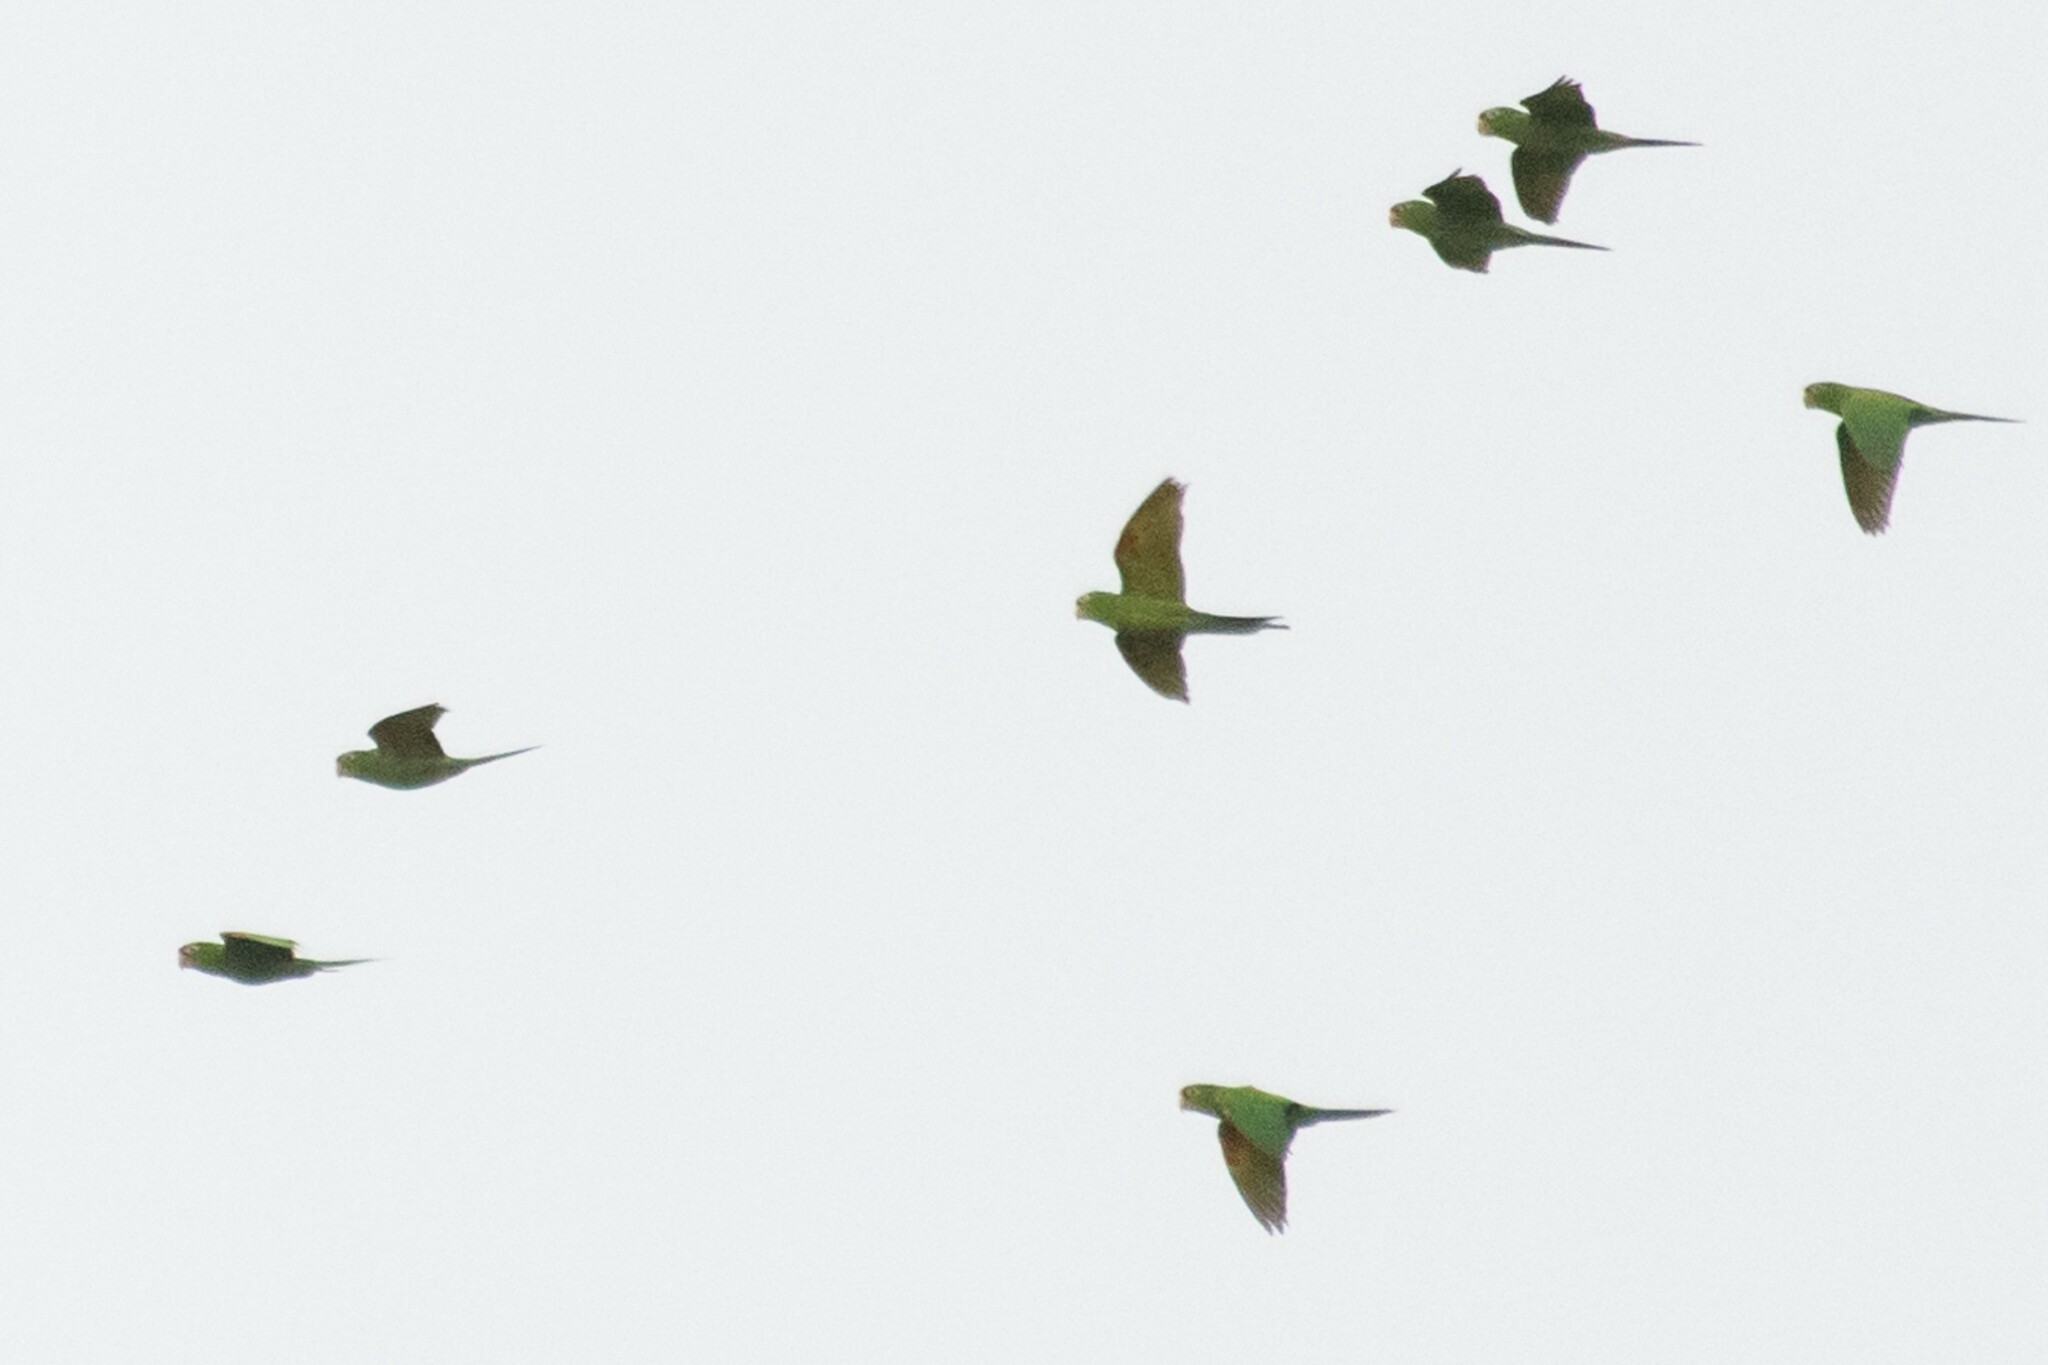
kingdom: Animalia
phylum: Chordata
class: Aves
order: Psittaciformes
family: Psittacidae
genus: Aratinga
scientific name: Aratinga finschi
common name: Crimson-fronted parakeet
